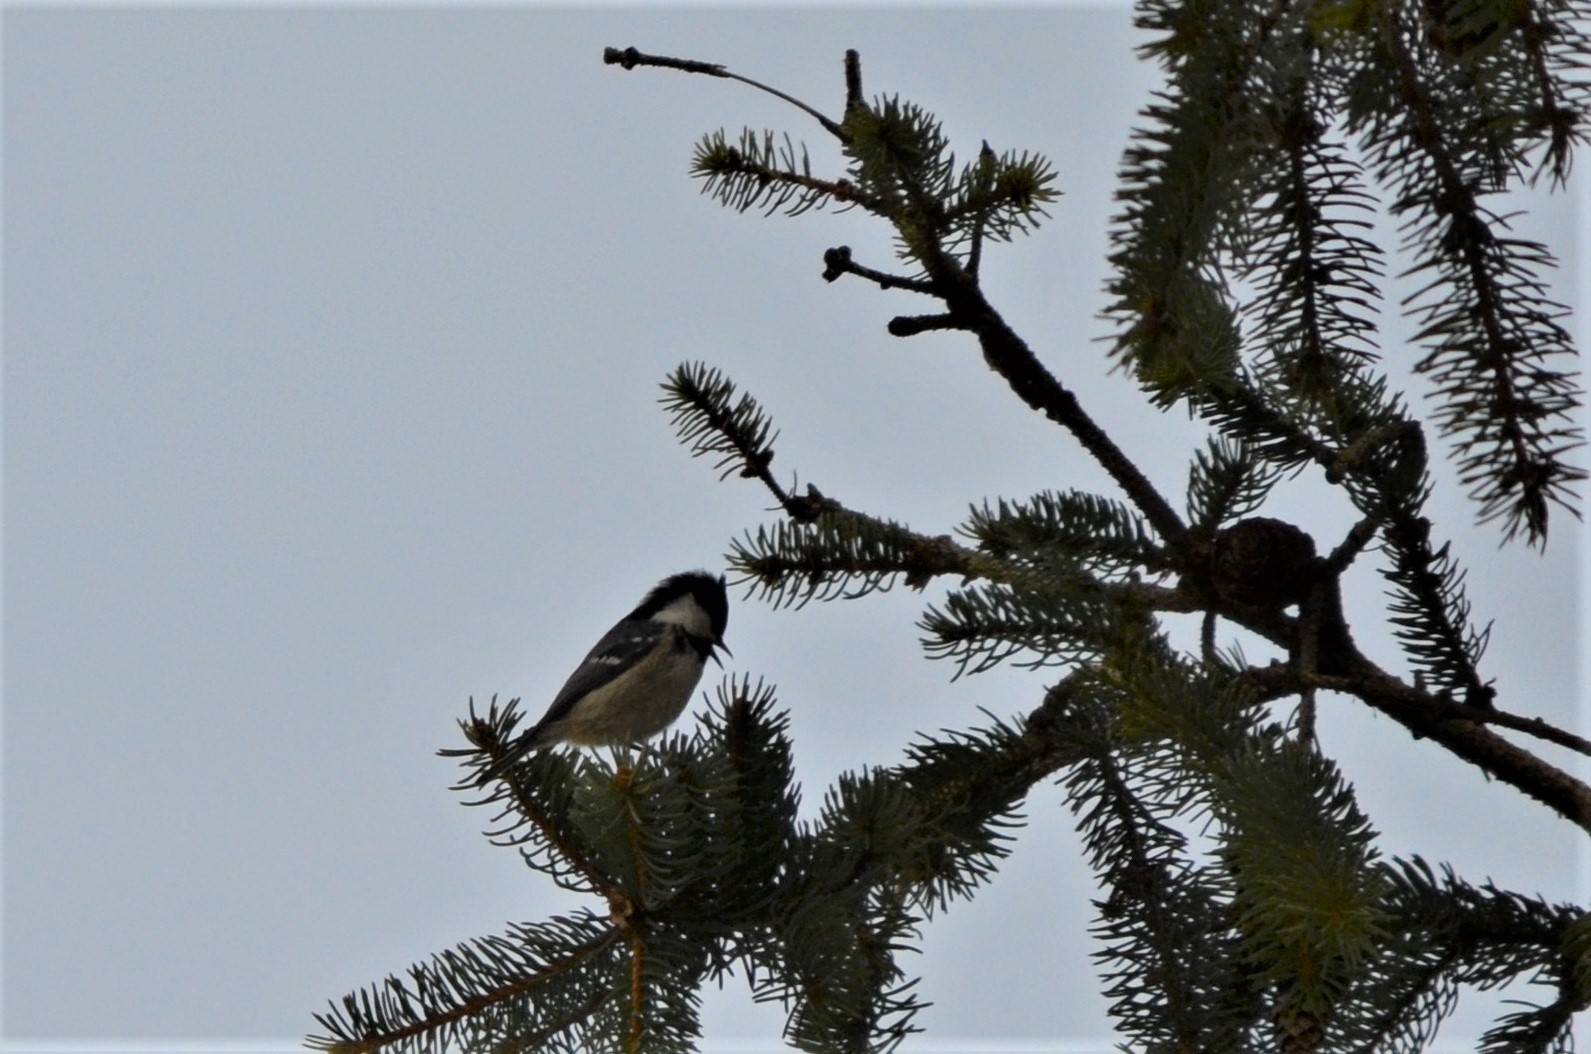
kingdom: Animalia
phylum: Chordata
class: Aves
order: Passeriformes
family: Paridae
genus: Periparus
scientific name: Periparus ater
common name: Coal tit
